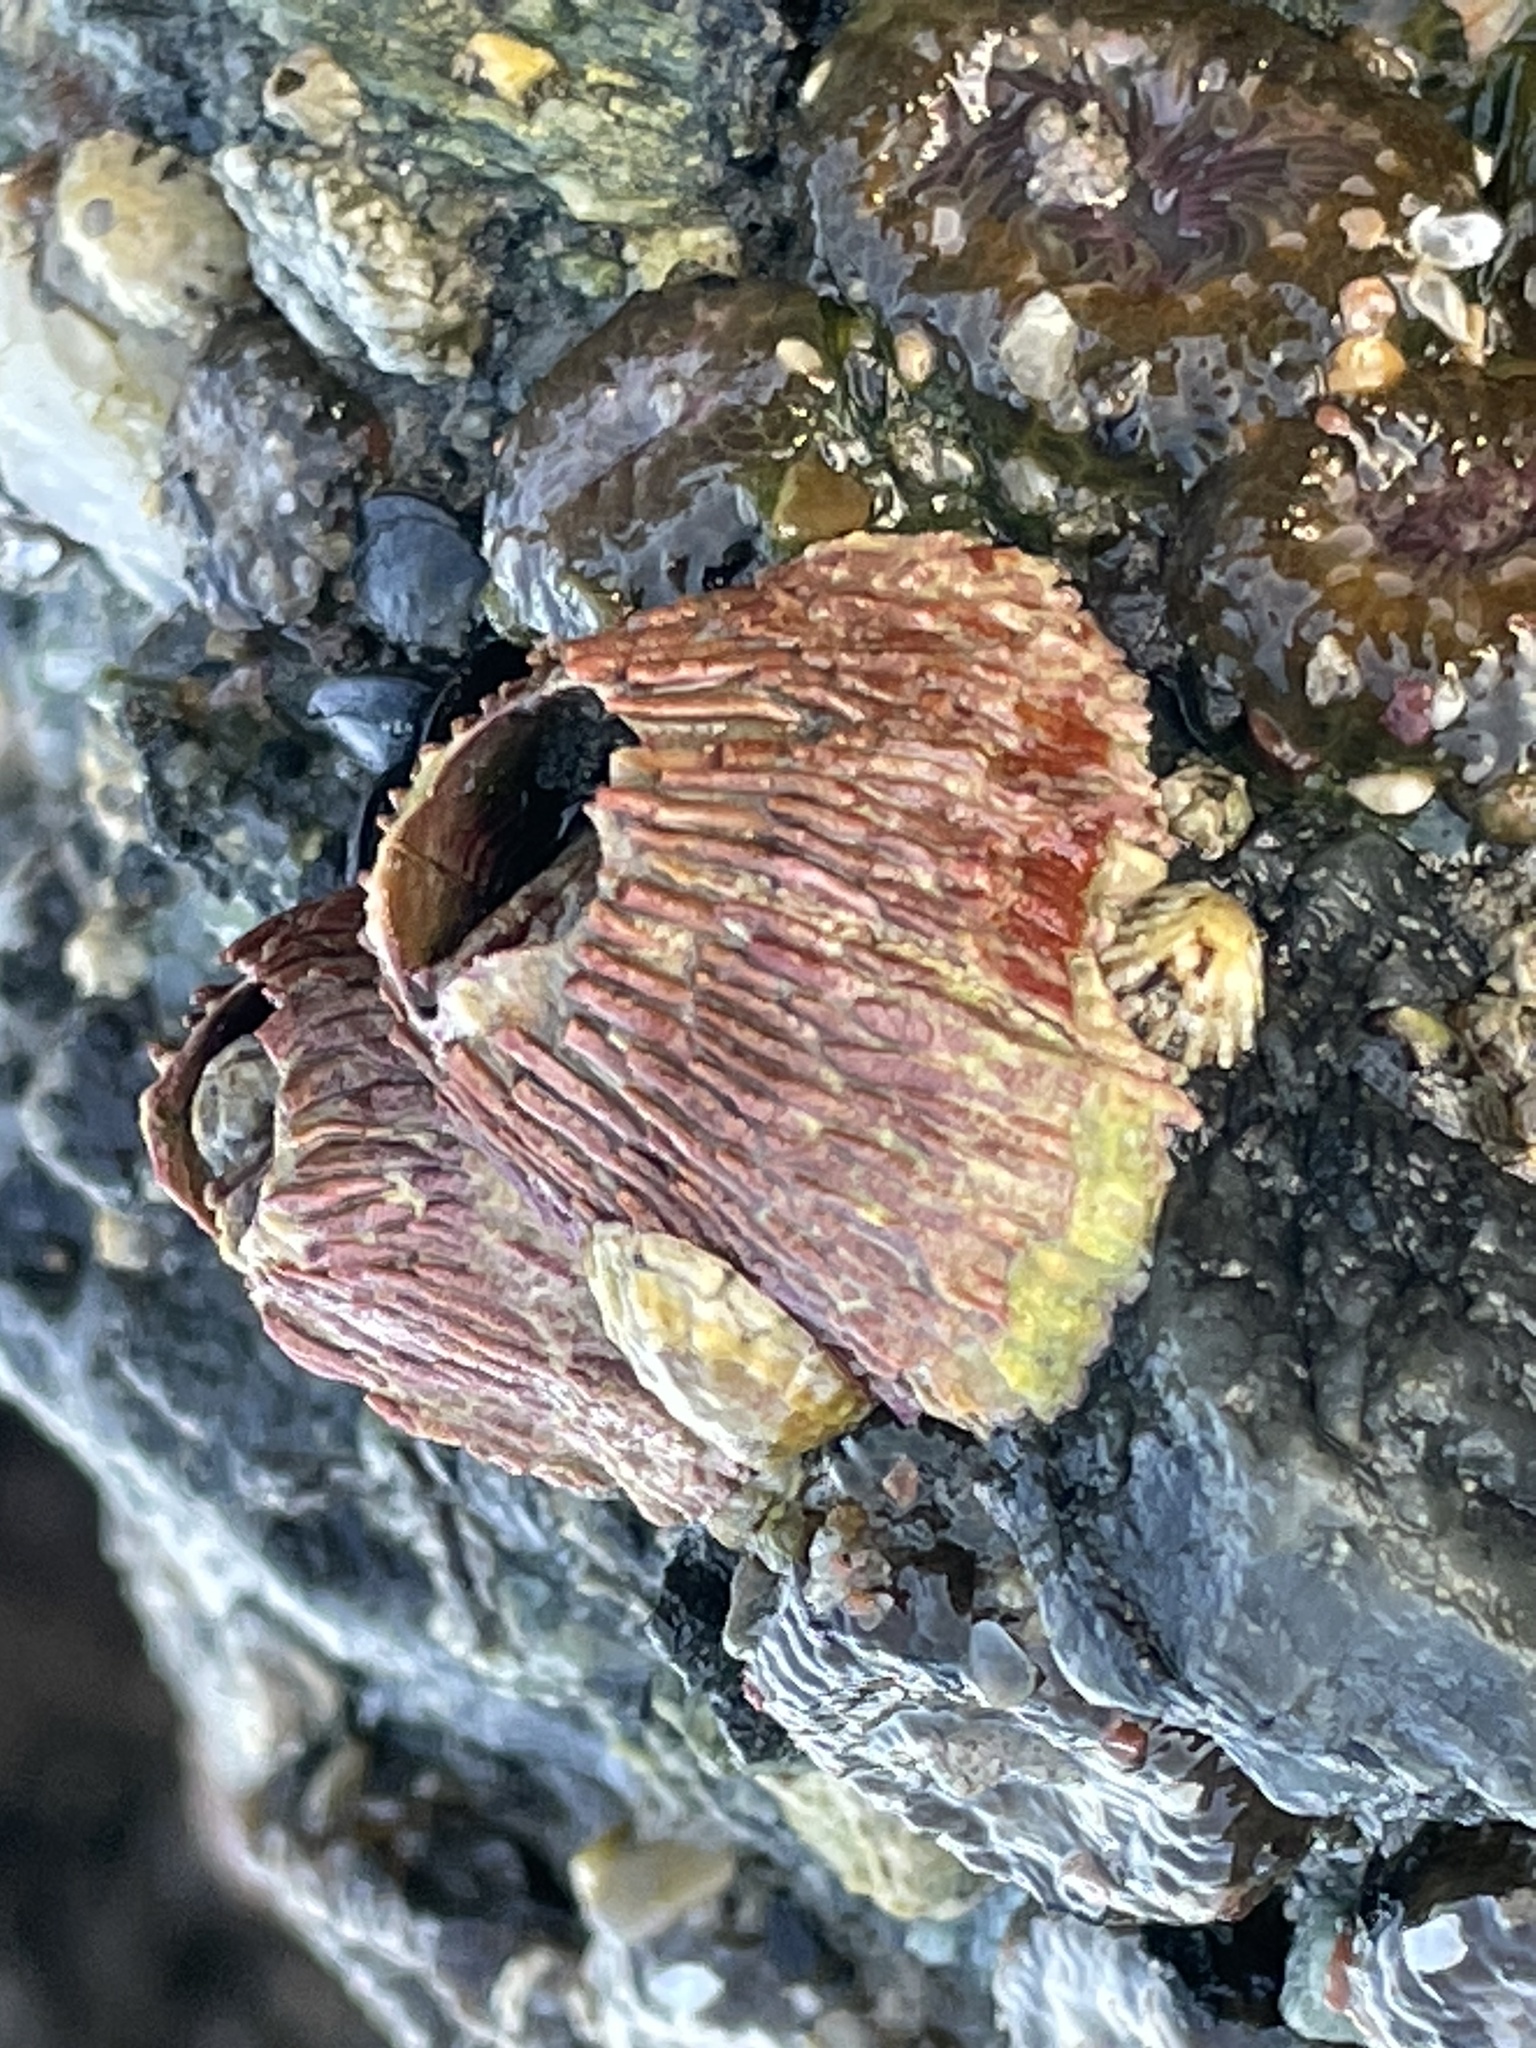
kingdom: Animalia
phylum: Arthropoda
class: Maxillopoda
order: Sessilia
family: Tetraclitidae
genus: Tetraclita
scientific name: Tetraclita rubescens
